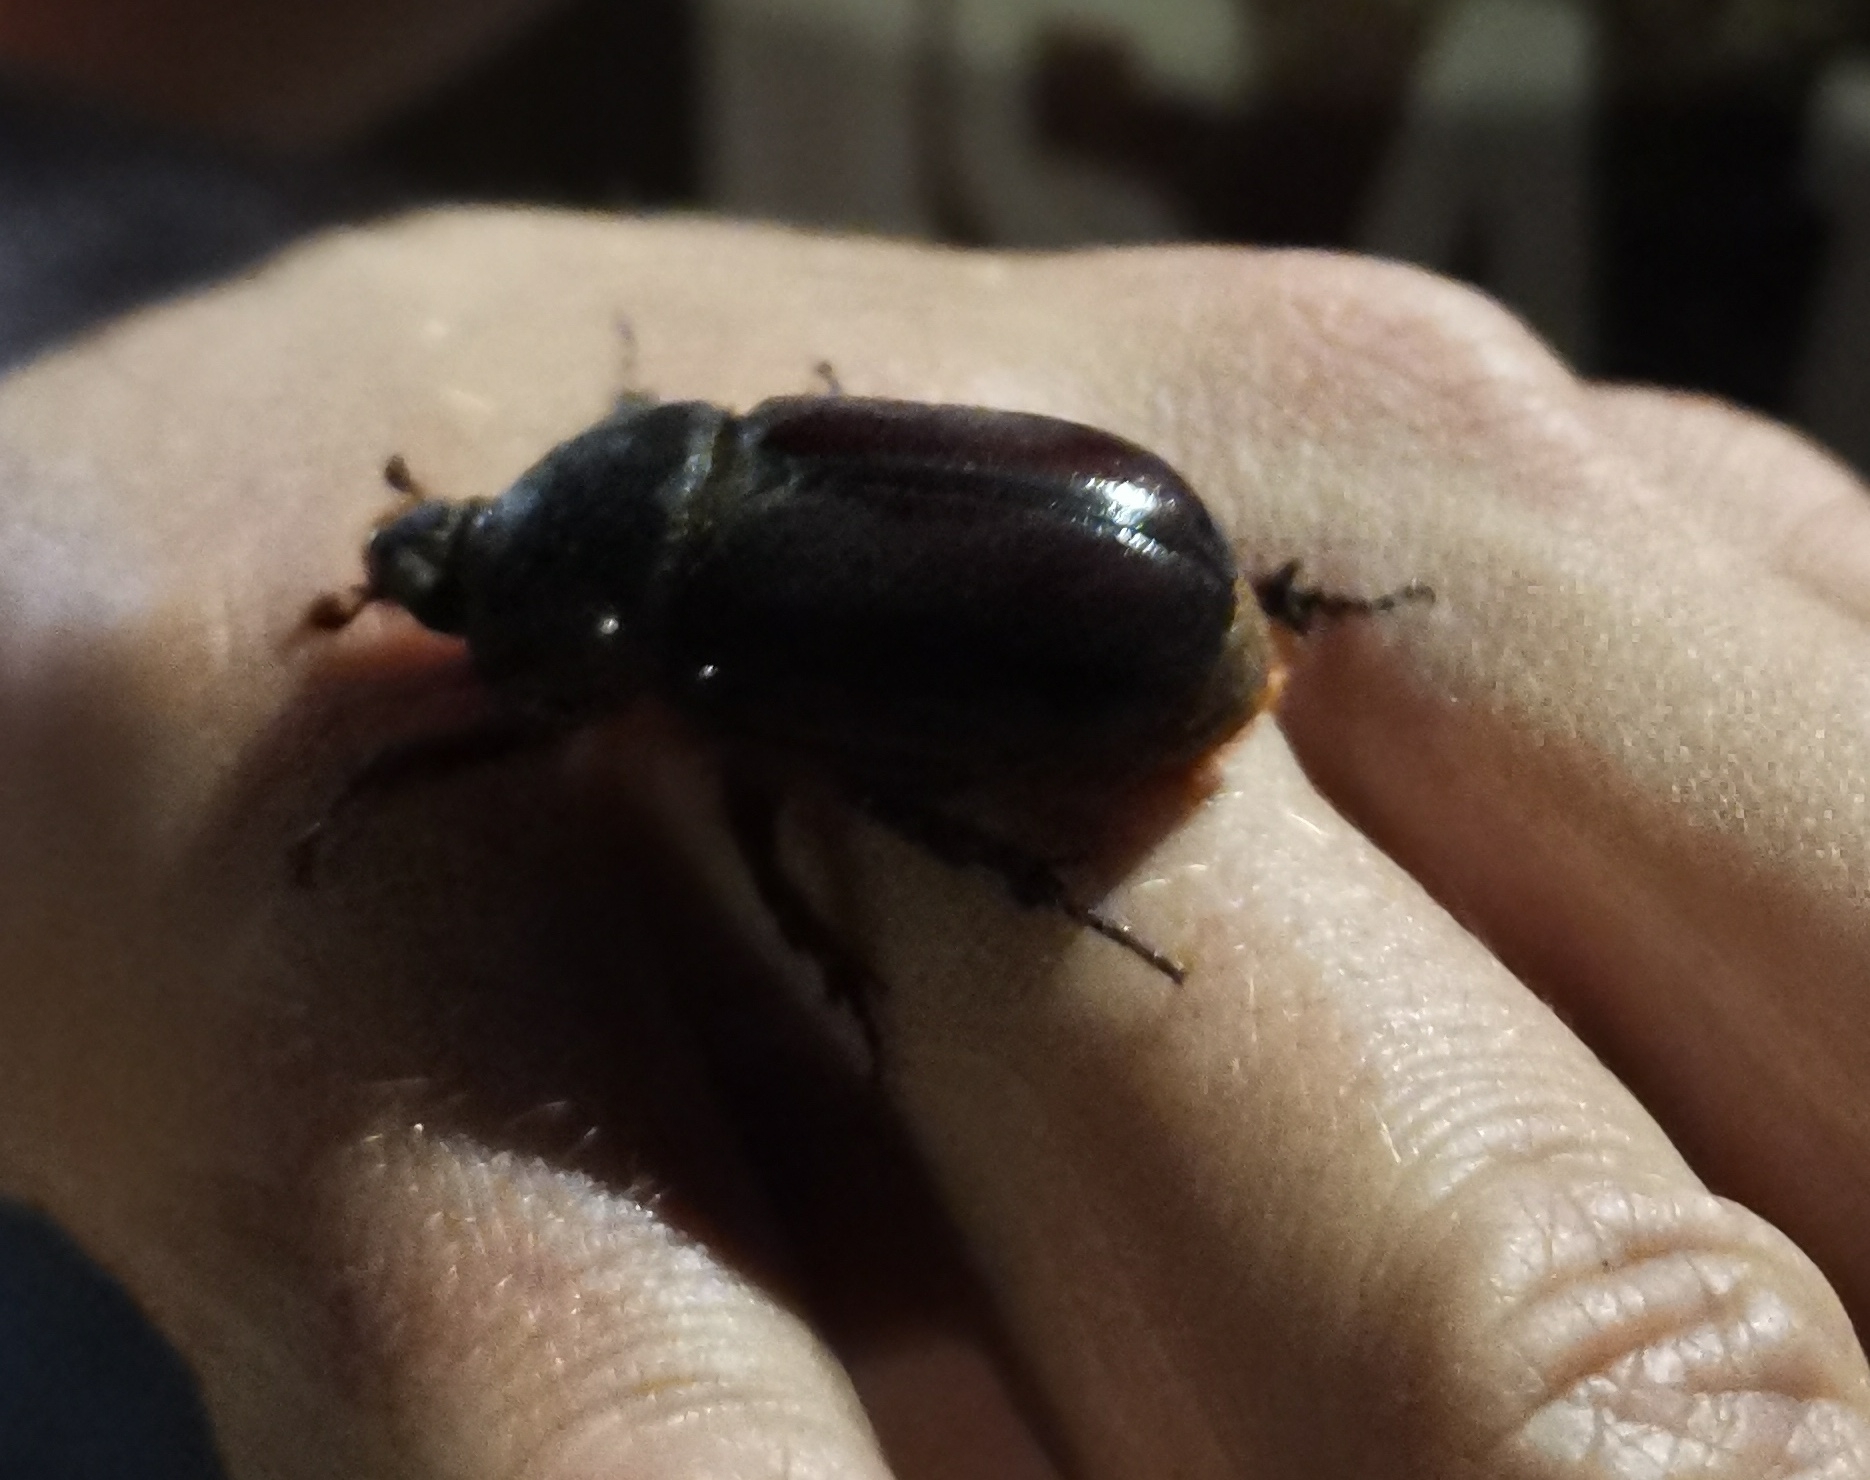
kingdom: Animalia
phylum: Arthropoda
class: Insecta
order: Coleoptera
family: Scarabaeidae
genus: Oryctes
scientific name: Oryctes nasicornis
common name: European rhinoceros beetle
